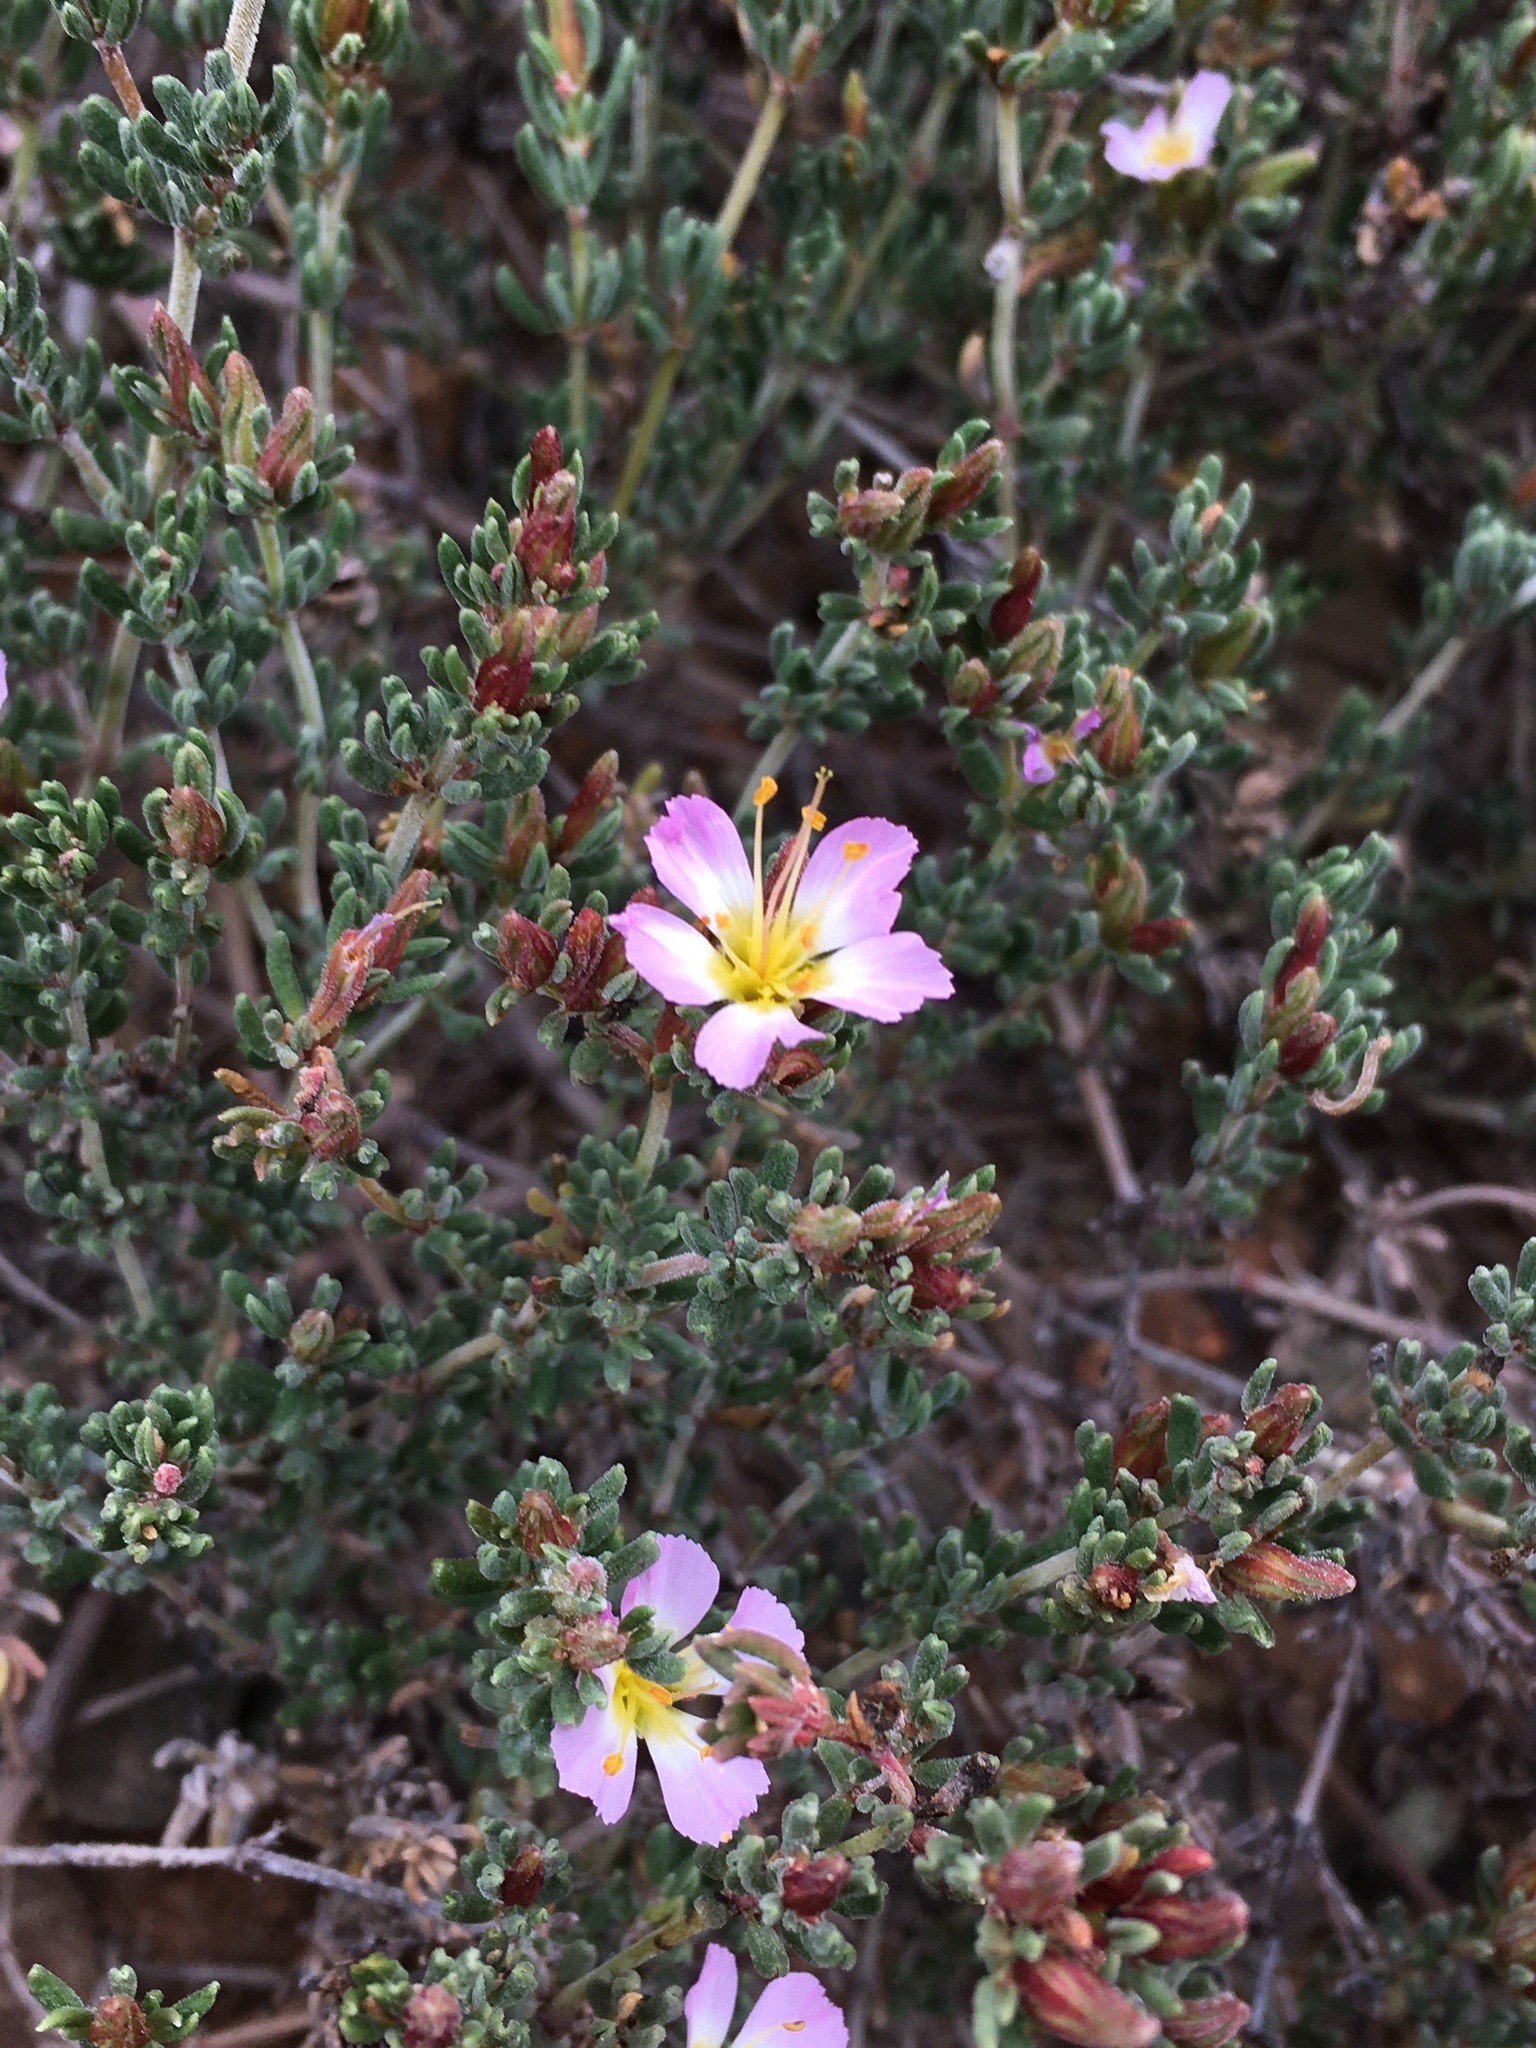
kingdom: Plantae
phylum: Tracheophyta
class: Magnoliopsida
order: Caryophyllales
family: Frankeniaceae
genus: Frankenia
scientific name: Frankenia chilensis
